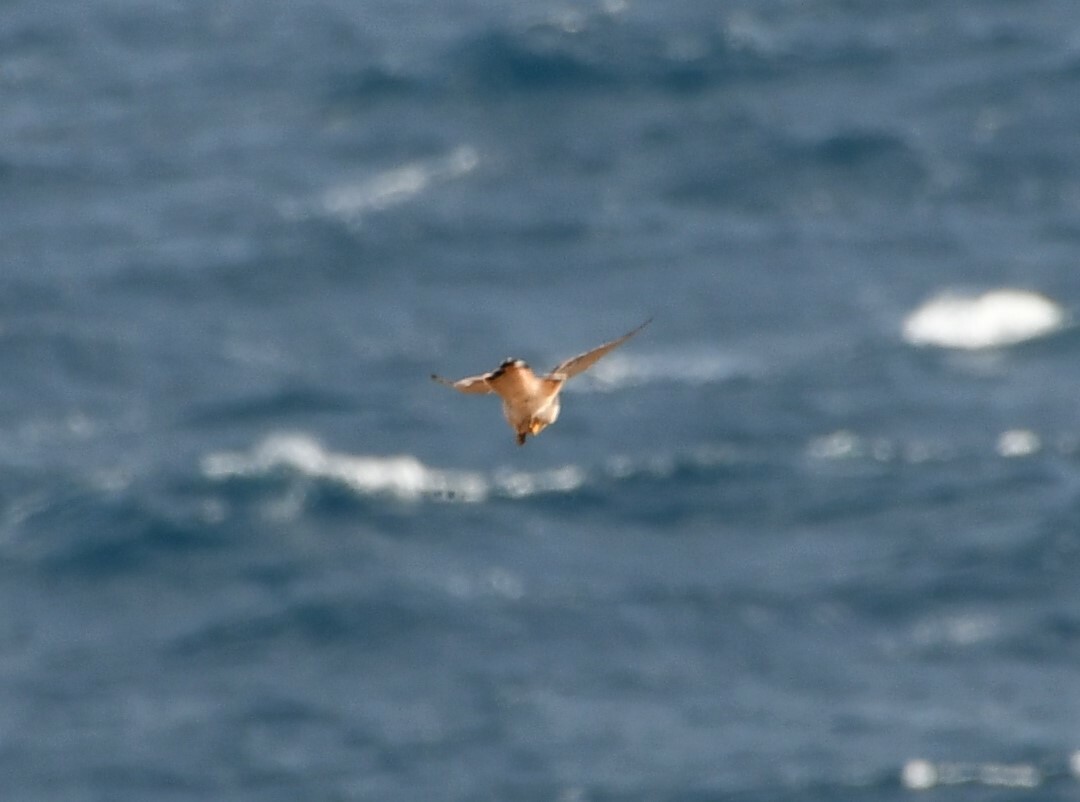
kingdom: Animalia
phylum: Chordata
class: Aves
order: Falconiformes
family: Falconidae
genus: Falco
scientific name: Falco cenchroides
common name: Nankeen kestrel
